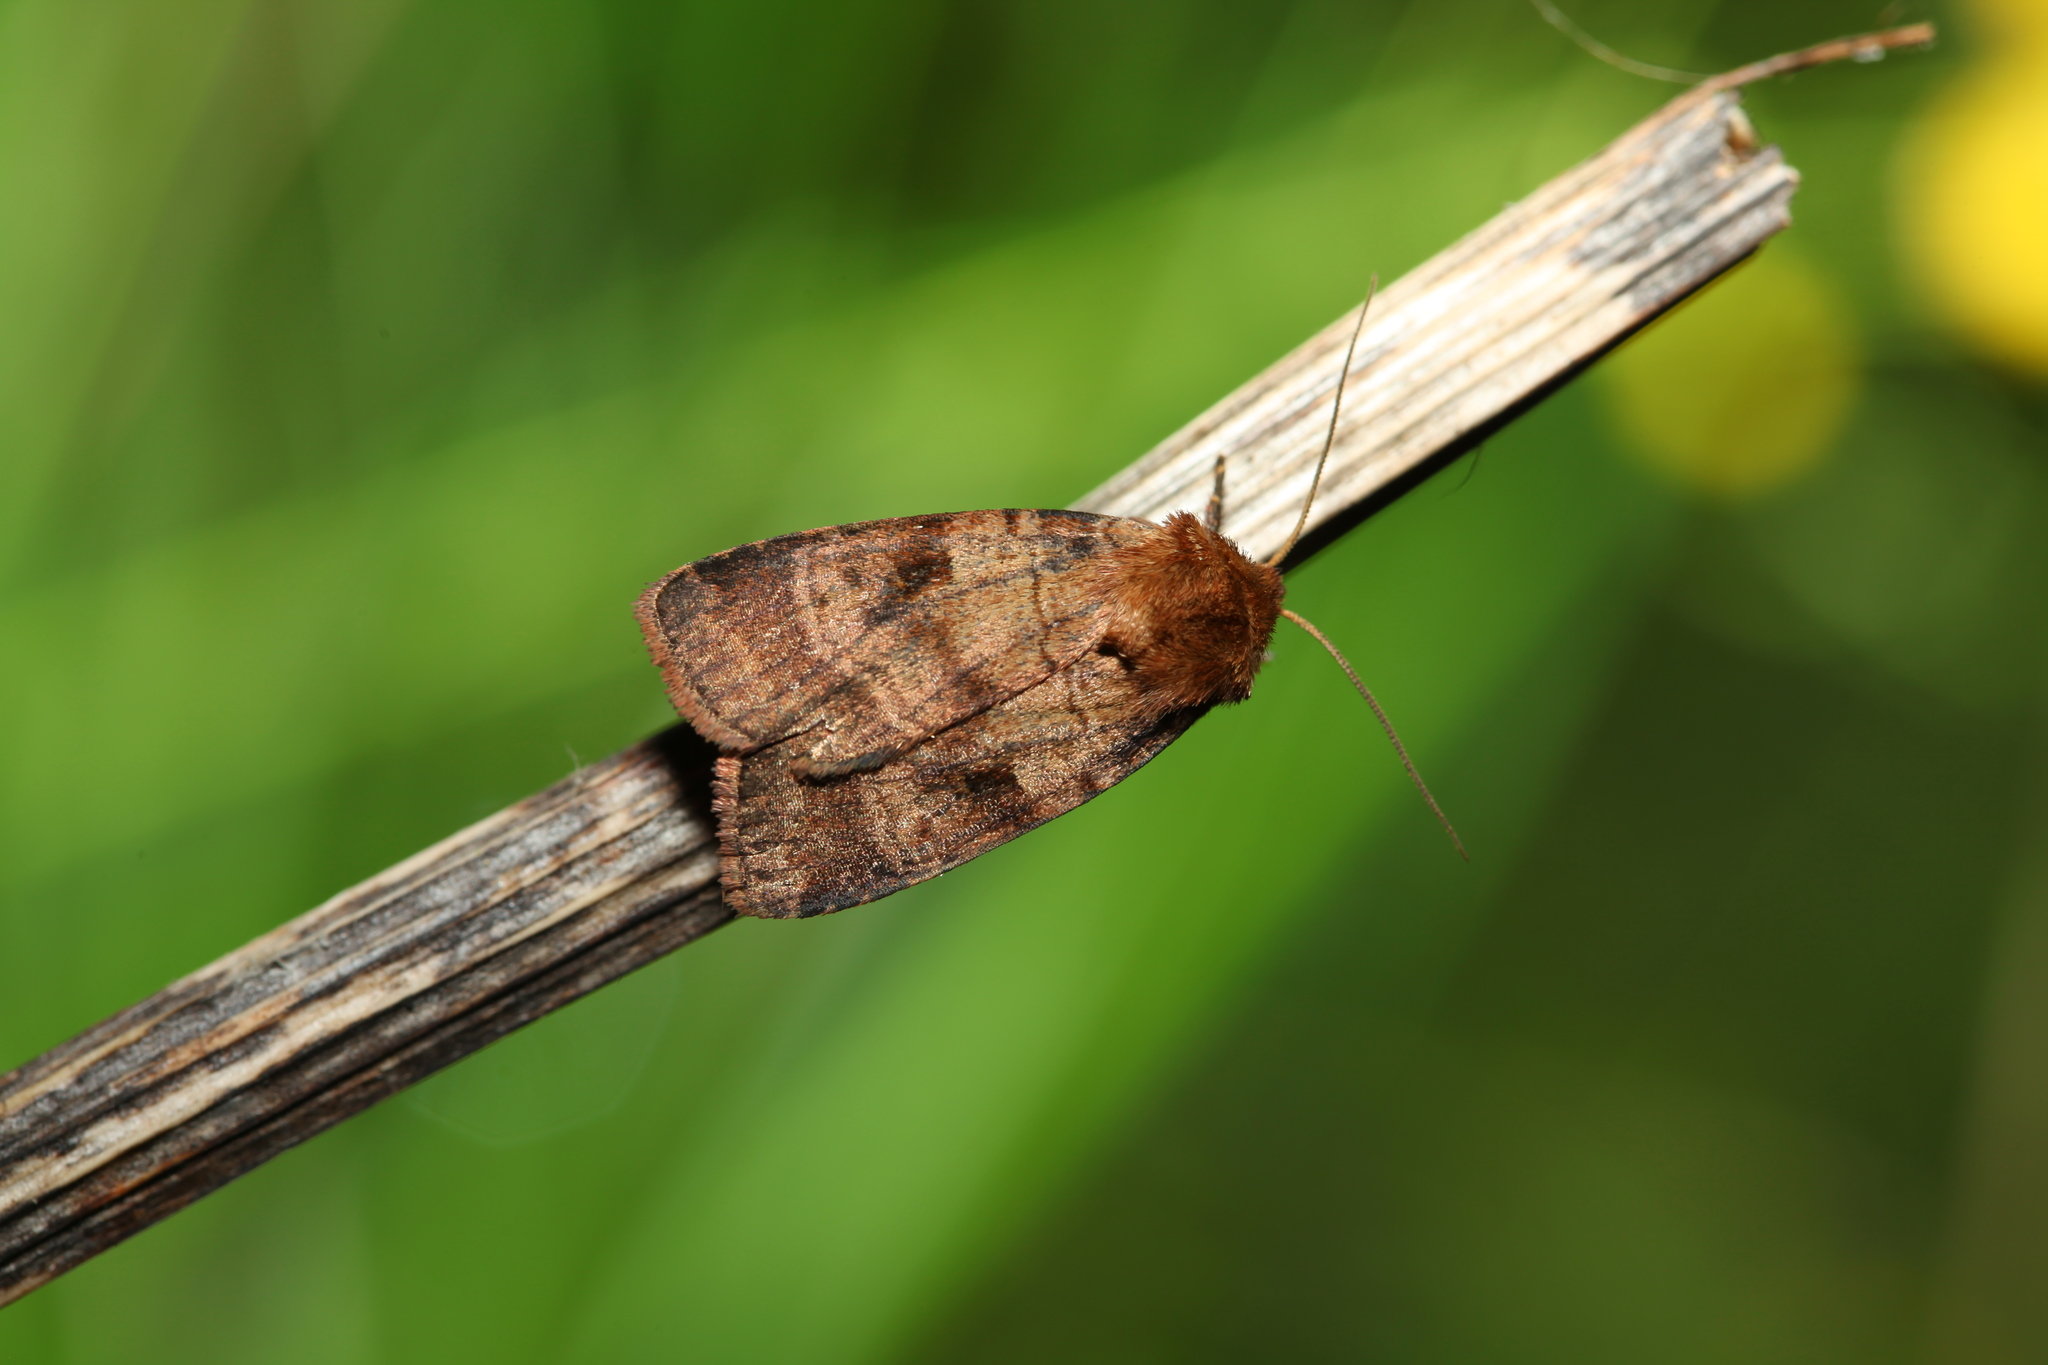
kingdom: Animalia
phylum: Arthropoda
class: Insecta
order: Lepidoptera
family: Noctuidae
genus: Paradiarsia
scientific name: Paradiarsia punicea
